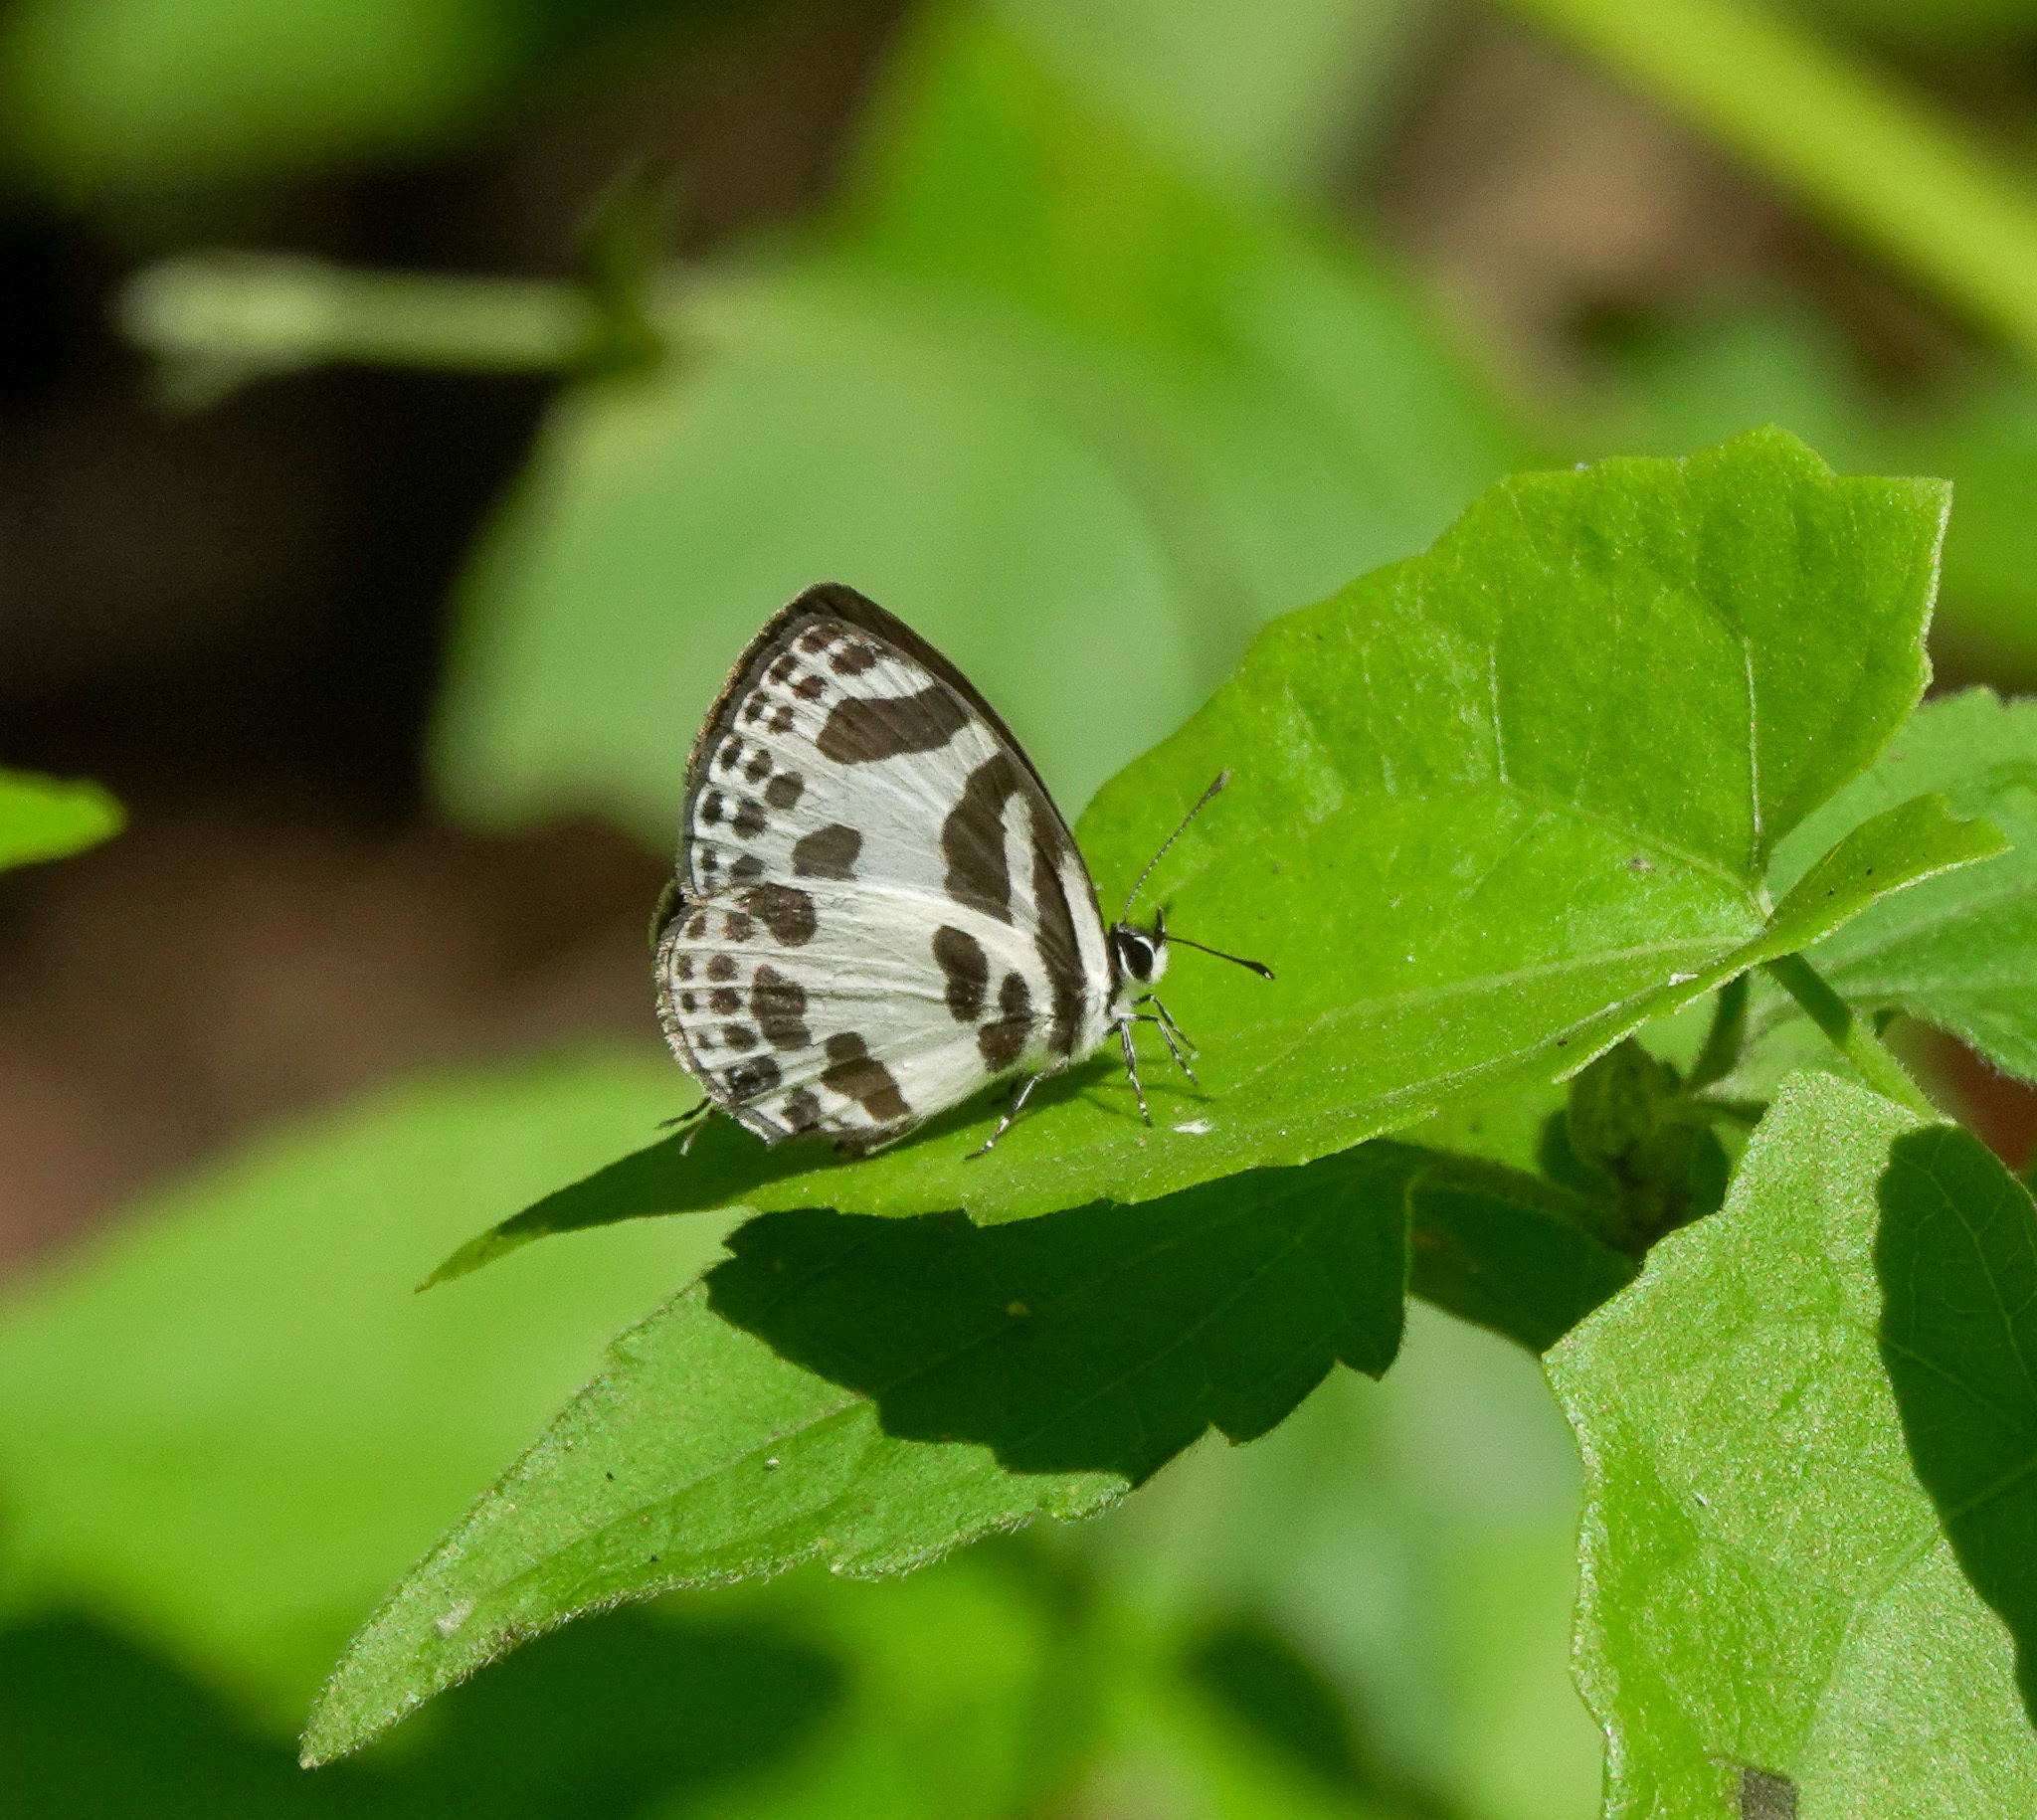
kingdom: Animalia
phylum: Arthropoda
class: Insecta
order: Lepidoptera
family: Lycaenidae
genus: Discolampa
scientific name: Discolampa ethion
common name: Banded blue pierrot
